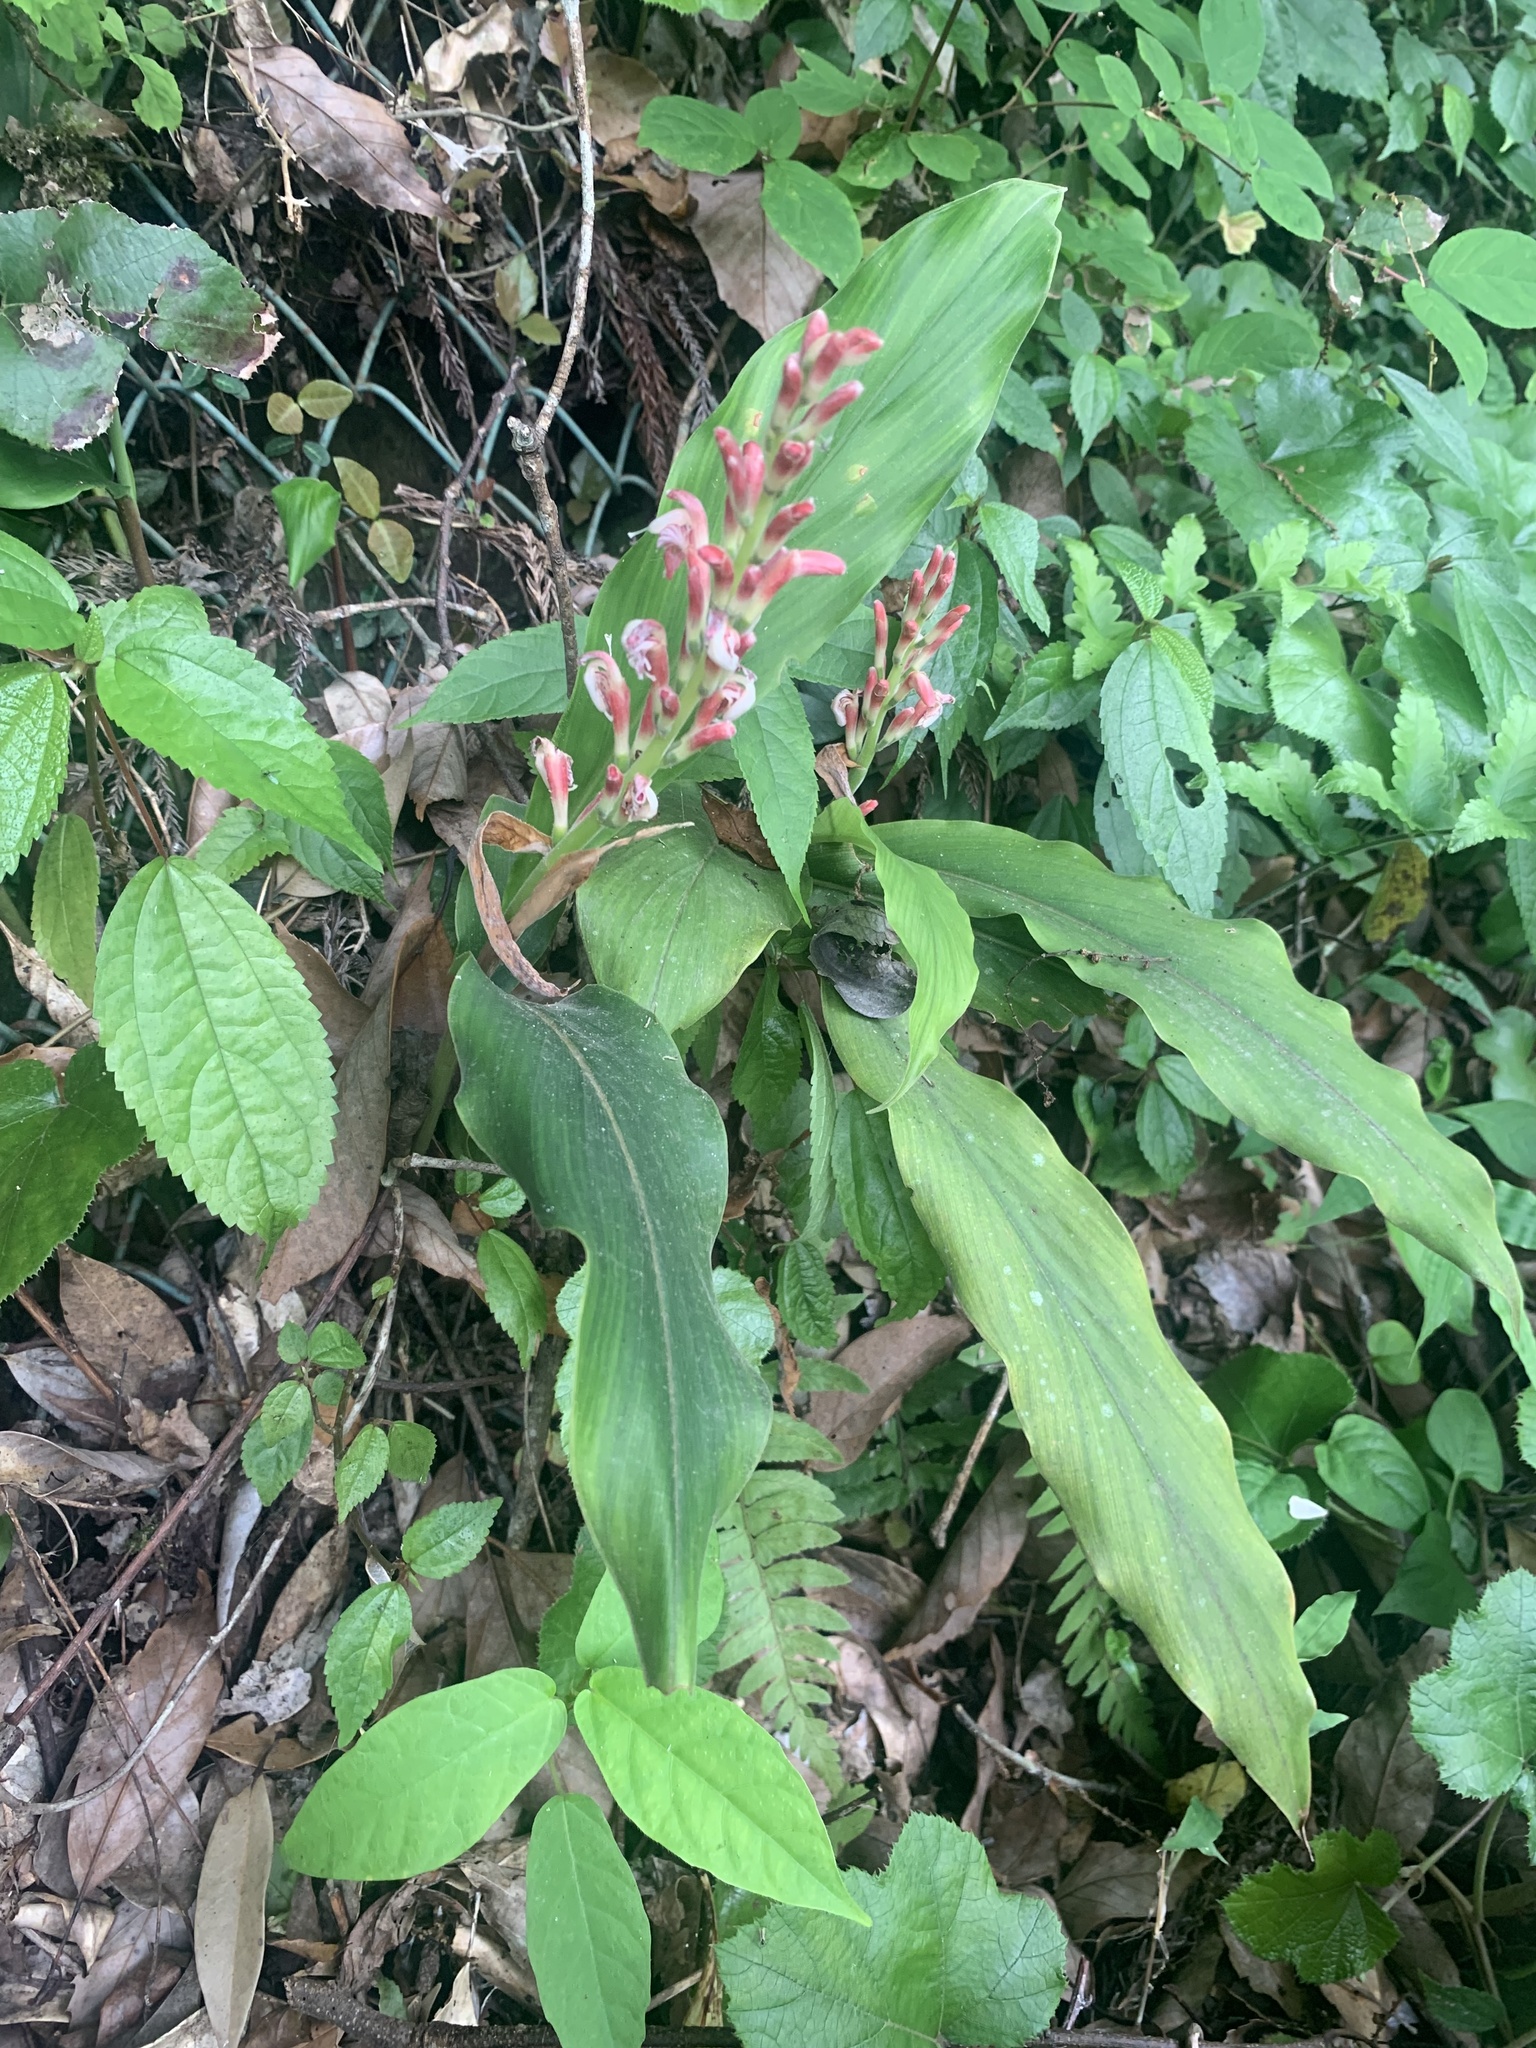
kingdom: Plantae
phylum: Tracheophyta
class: Liliopsida
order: Zingiberales
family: Zingiberaceae
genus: Alpinia
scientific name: Alpinia japonica
